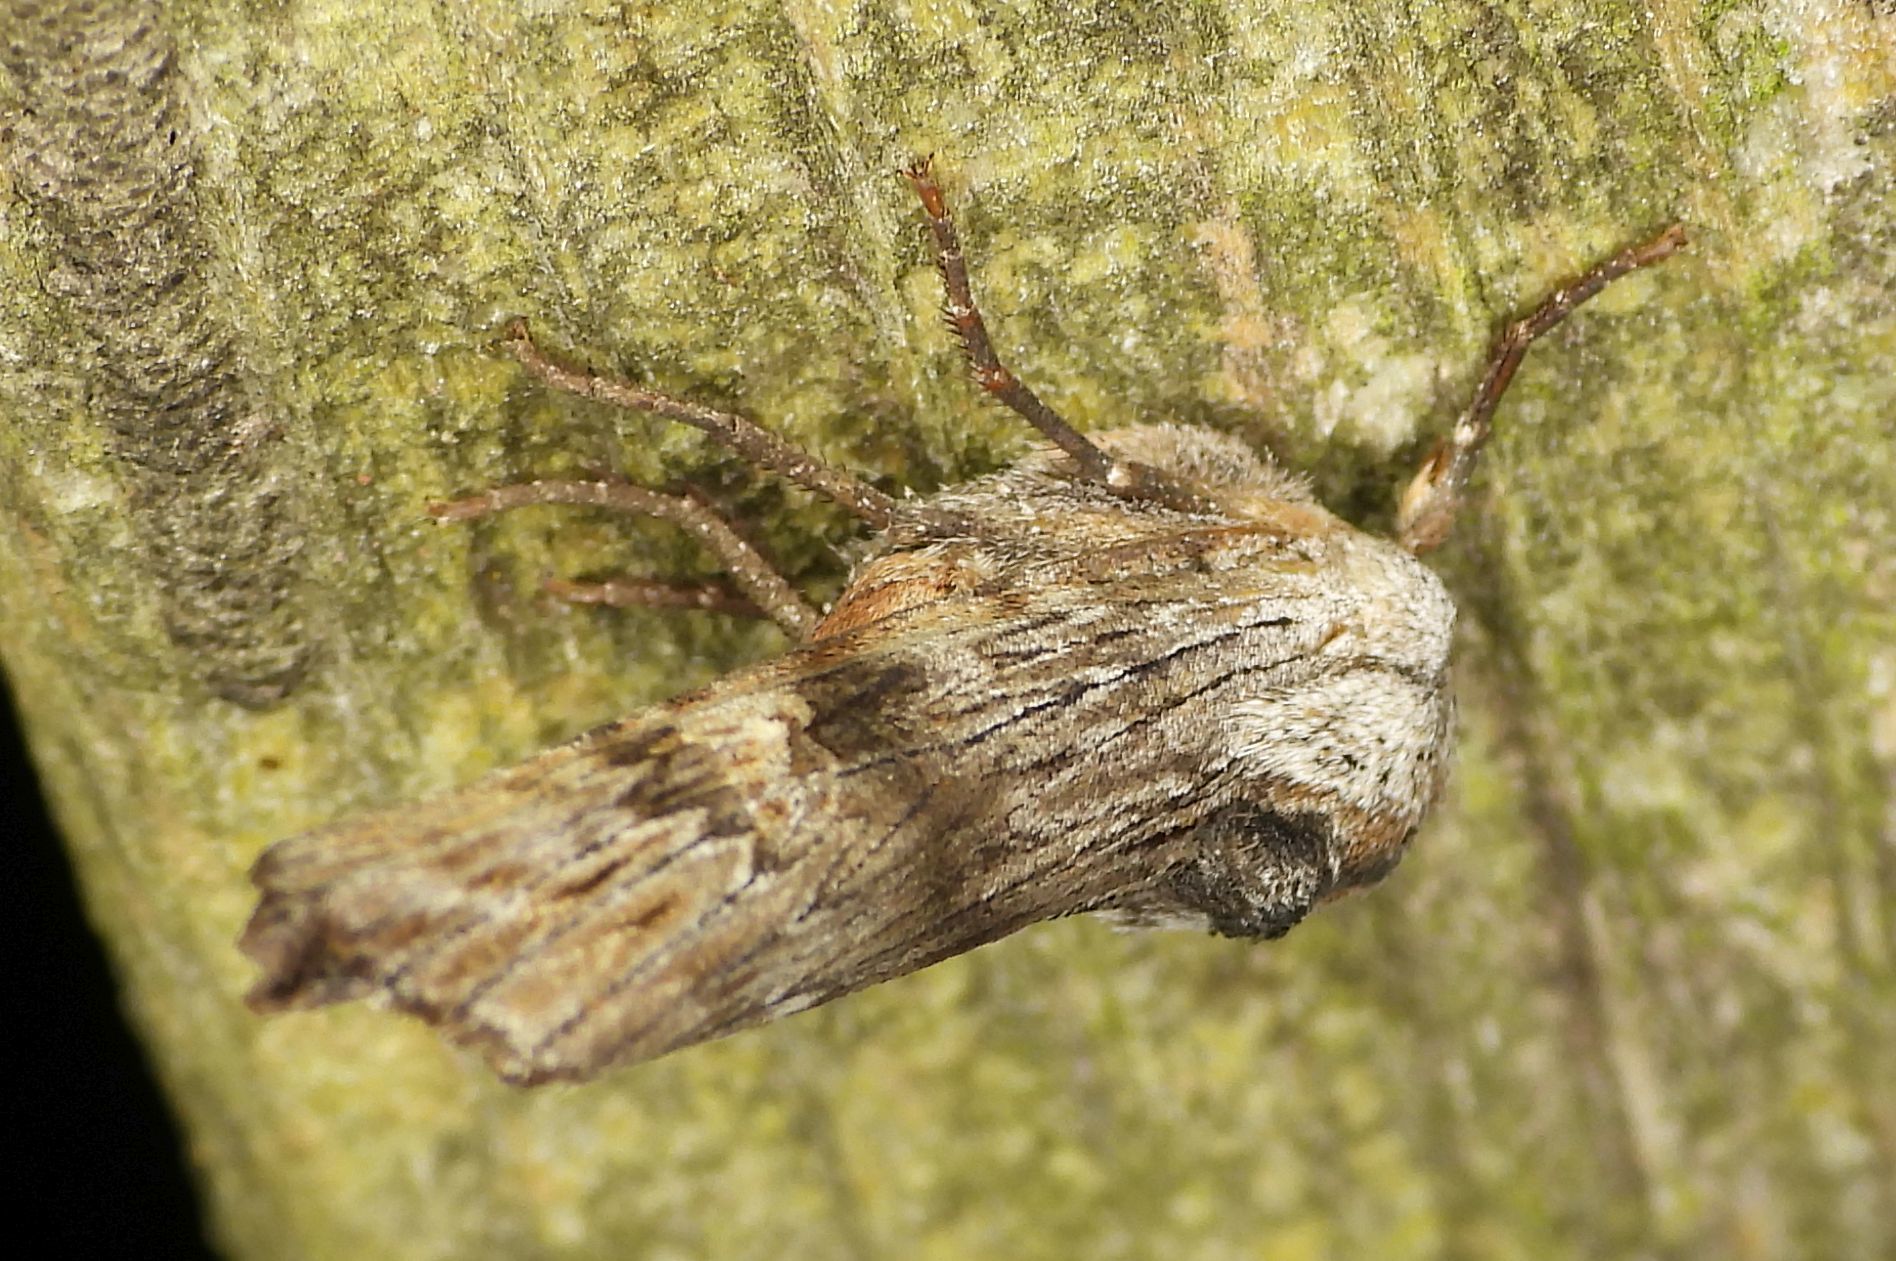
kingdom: Animalia
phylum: Arthropoda
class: Insecta
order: Lepidoptera
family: Noctuidae
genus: Xylena
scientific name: Xylena germana
